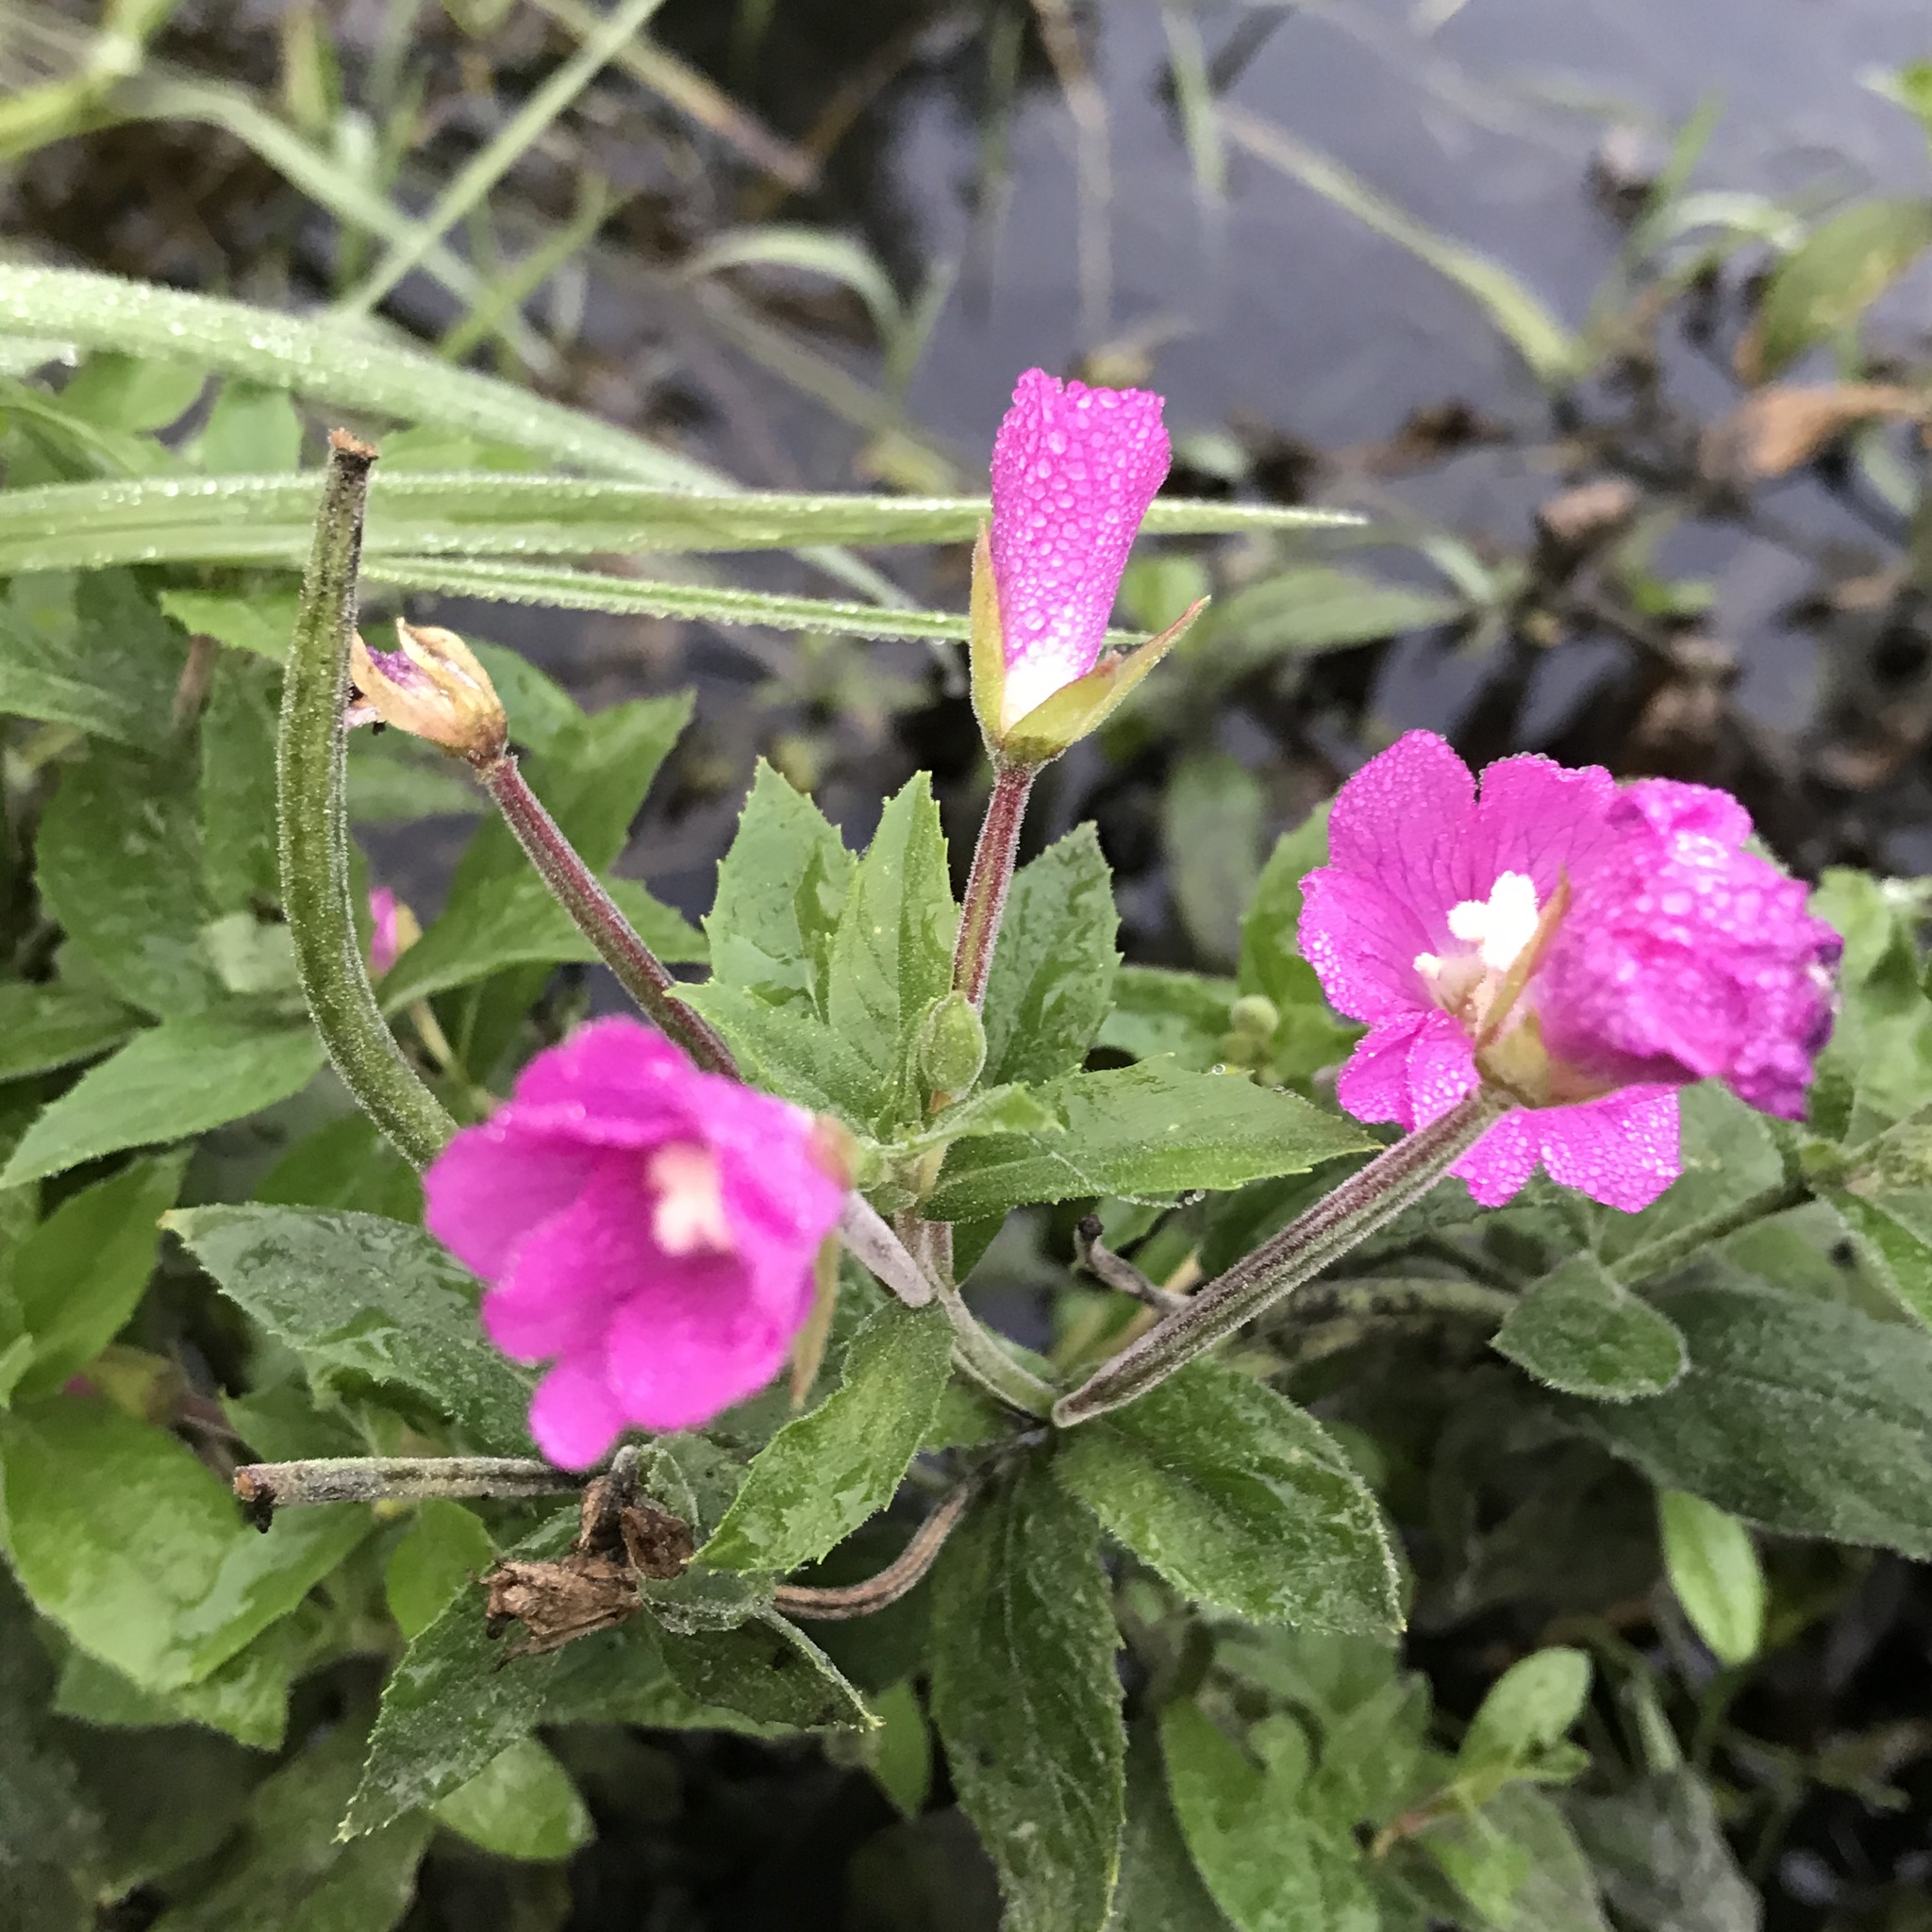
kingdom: Plantae
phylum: Tracheophyta
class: Magnoliopsida
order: Myrtales
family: Onagraceae
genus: Epilobium
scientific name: Epilobium hirsutum
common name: Great willowherb
